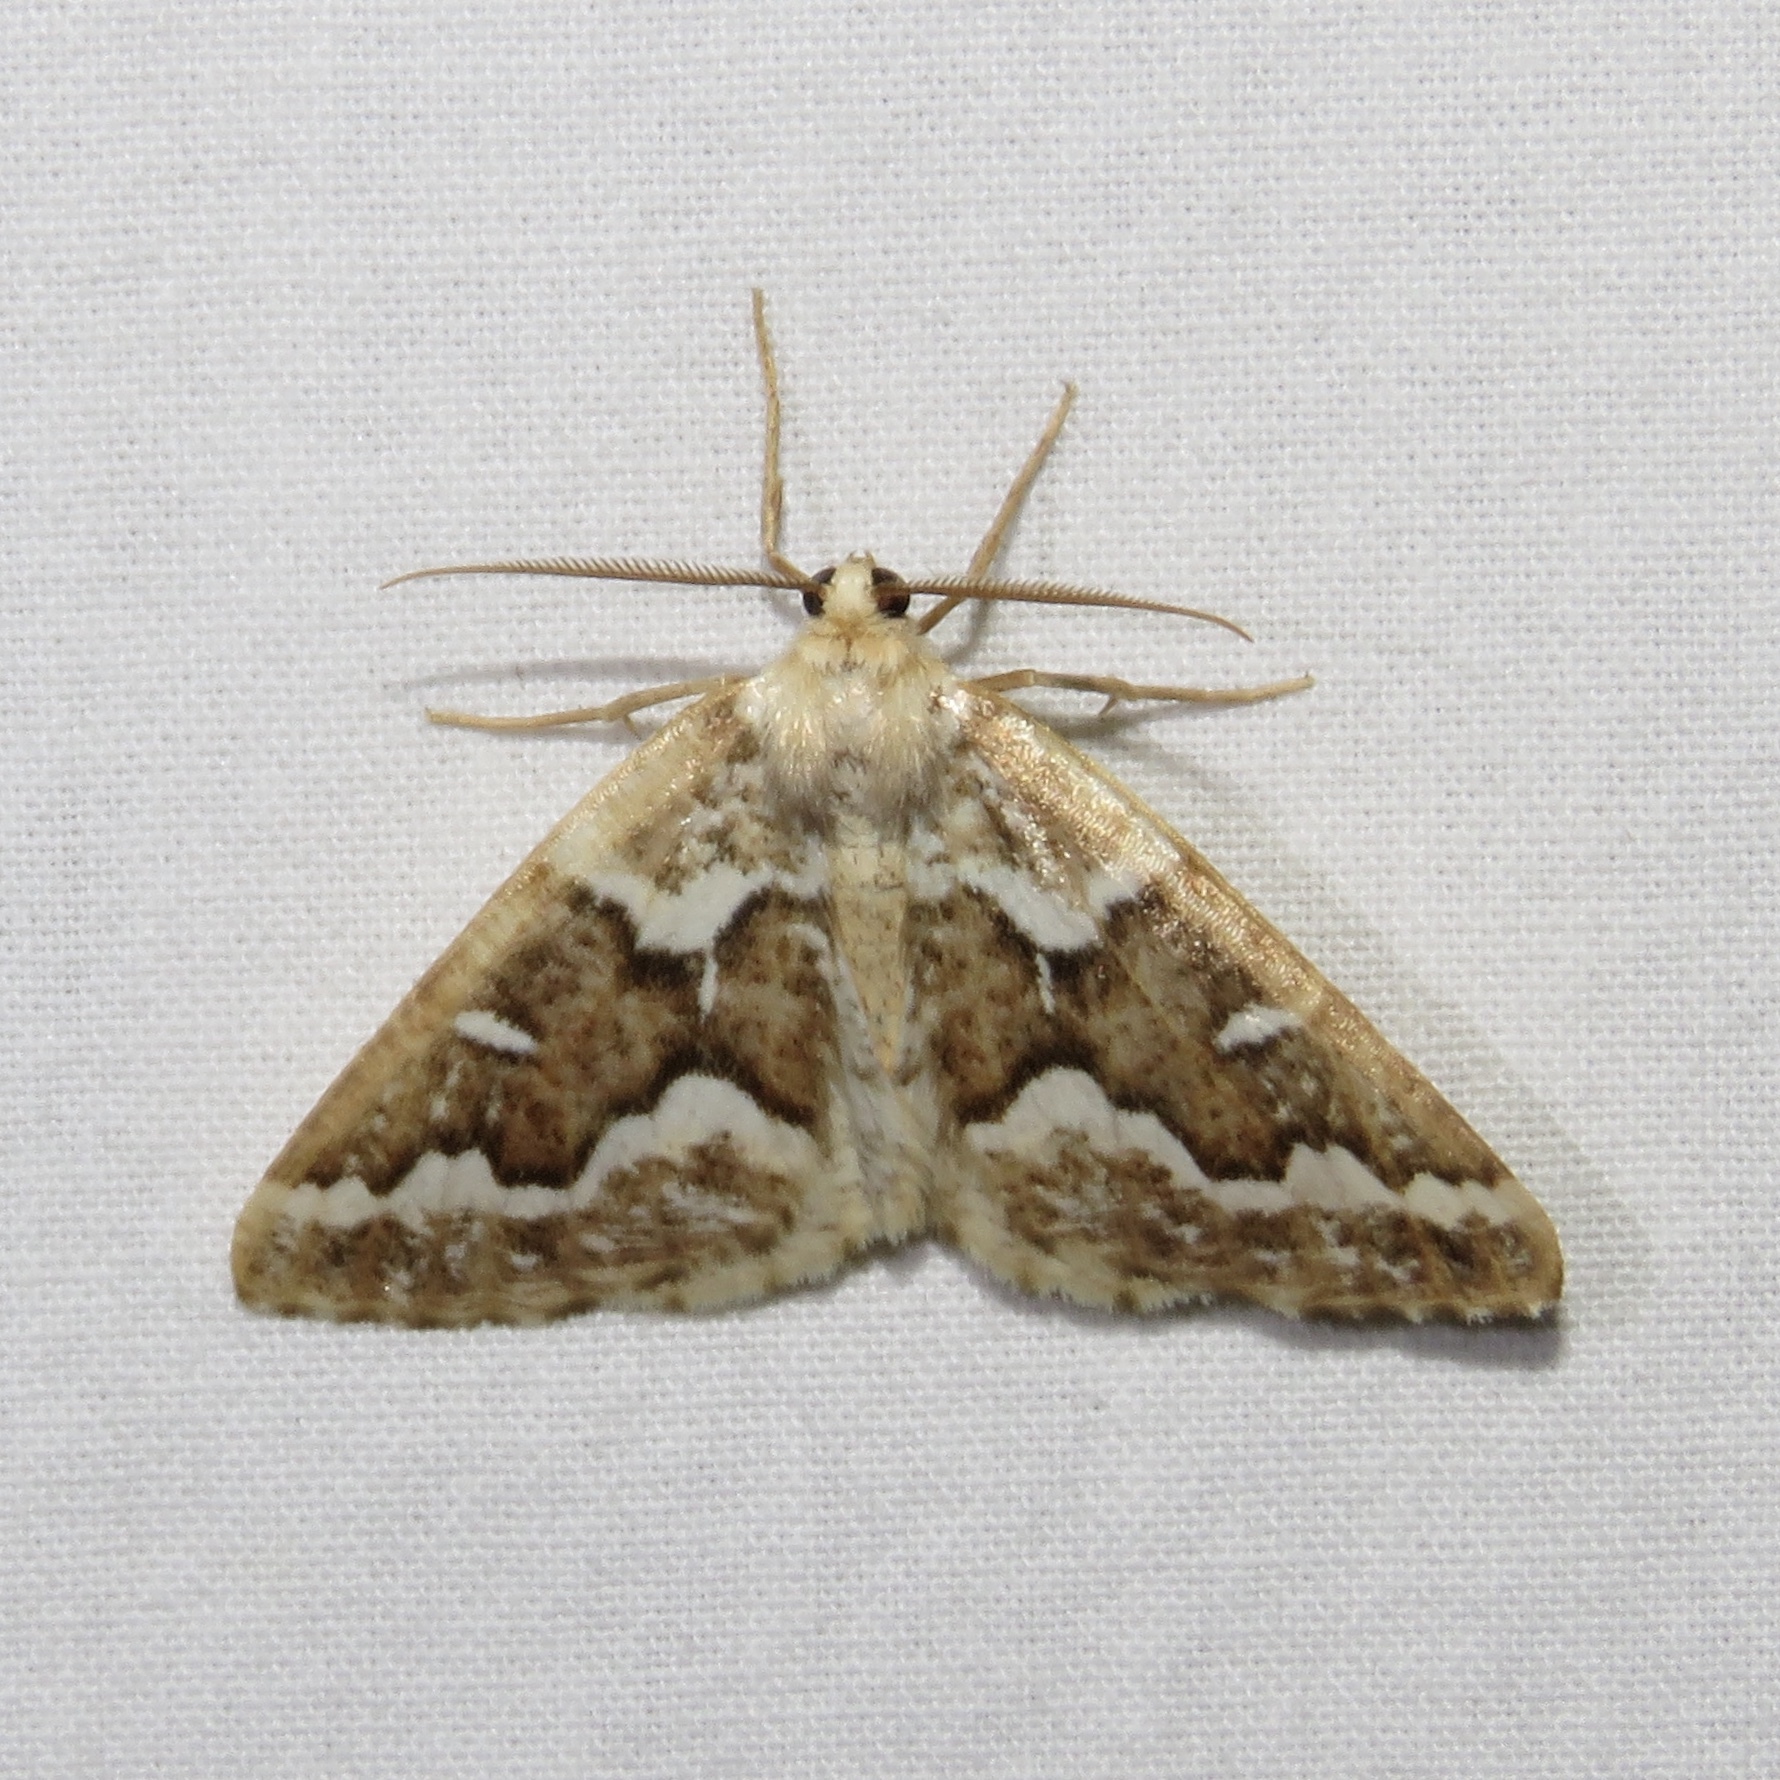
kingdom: Animalia
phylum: Arthropoda
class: Insecta
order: Lepidoptera
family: Geometridae
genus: Caripeta
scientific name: Caripeta divisata
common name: Gray spruce looper
